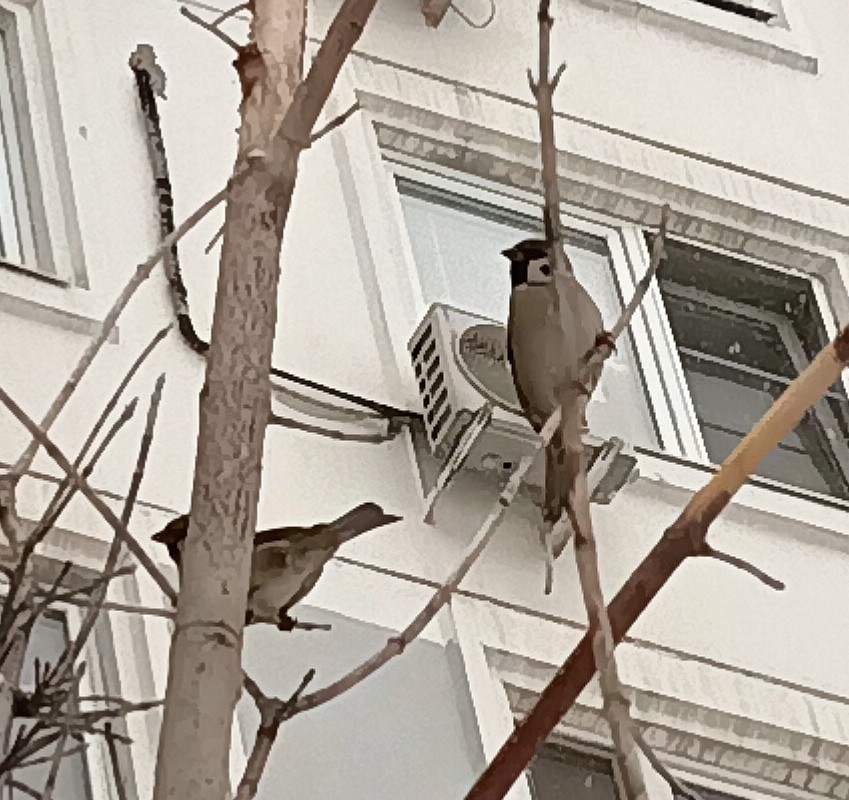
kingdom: Animalia
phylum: Chordata
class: Aves
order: Passeriformes
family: Passeridae
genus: Passer
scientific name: Passer montanus
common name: Eurasian tree sparrow
